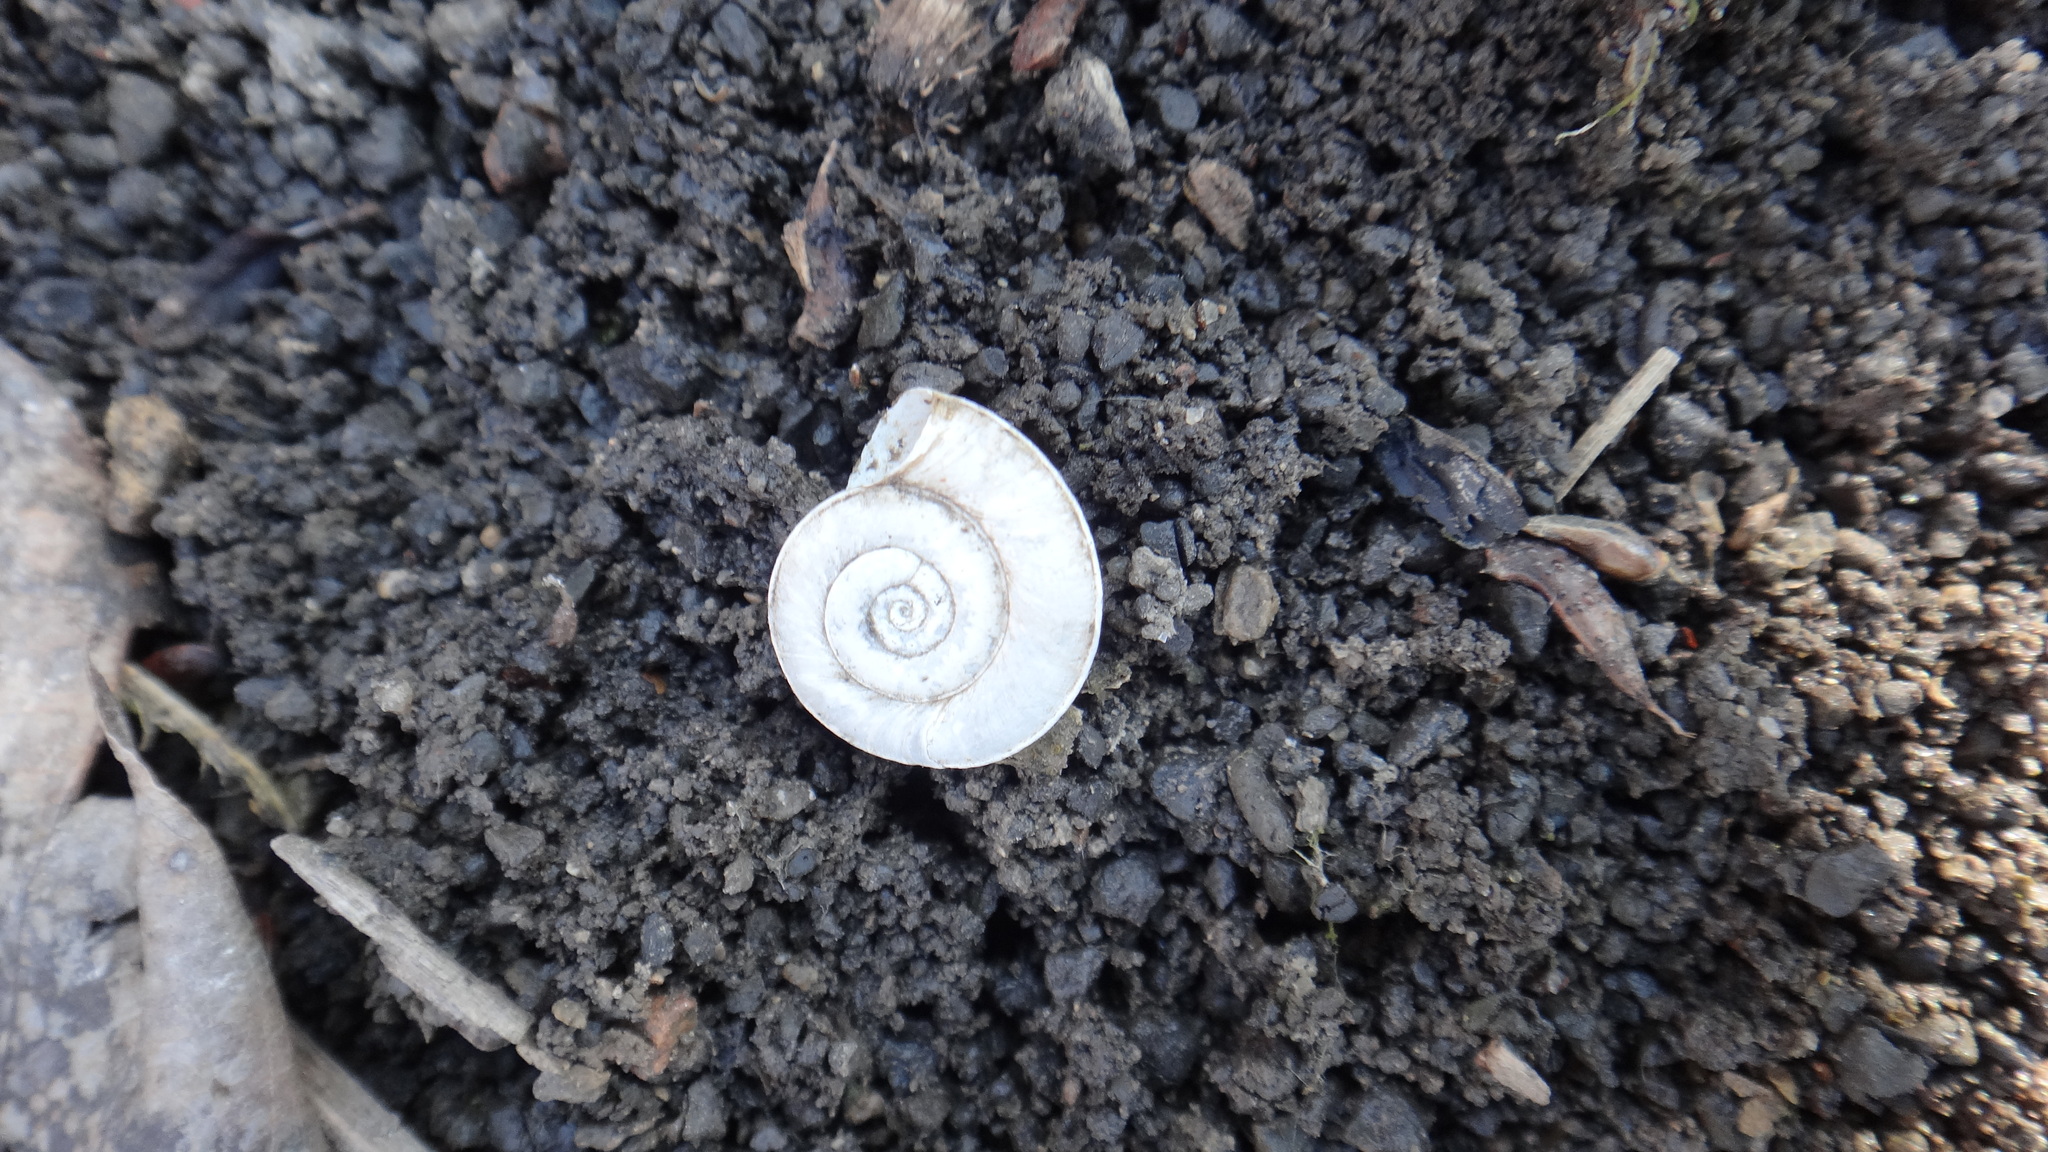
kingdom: Animalia
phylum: Mollusca
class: Gastropoda
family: Planorbidae
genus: Planorbis
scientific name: Planorbis planorbis
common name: Margined ramshorn
